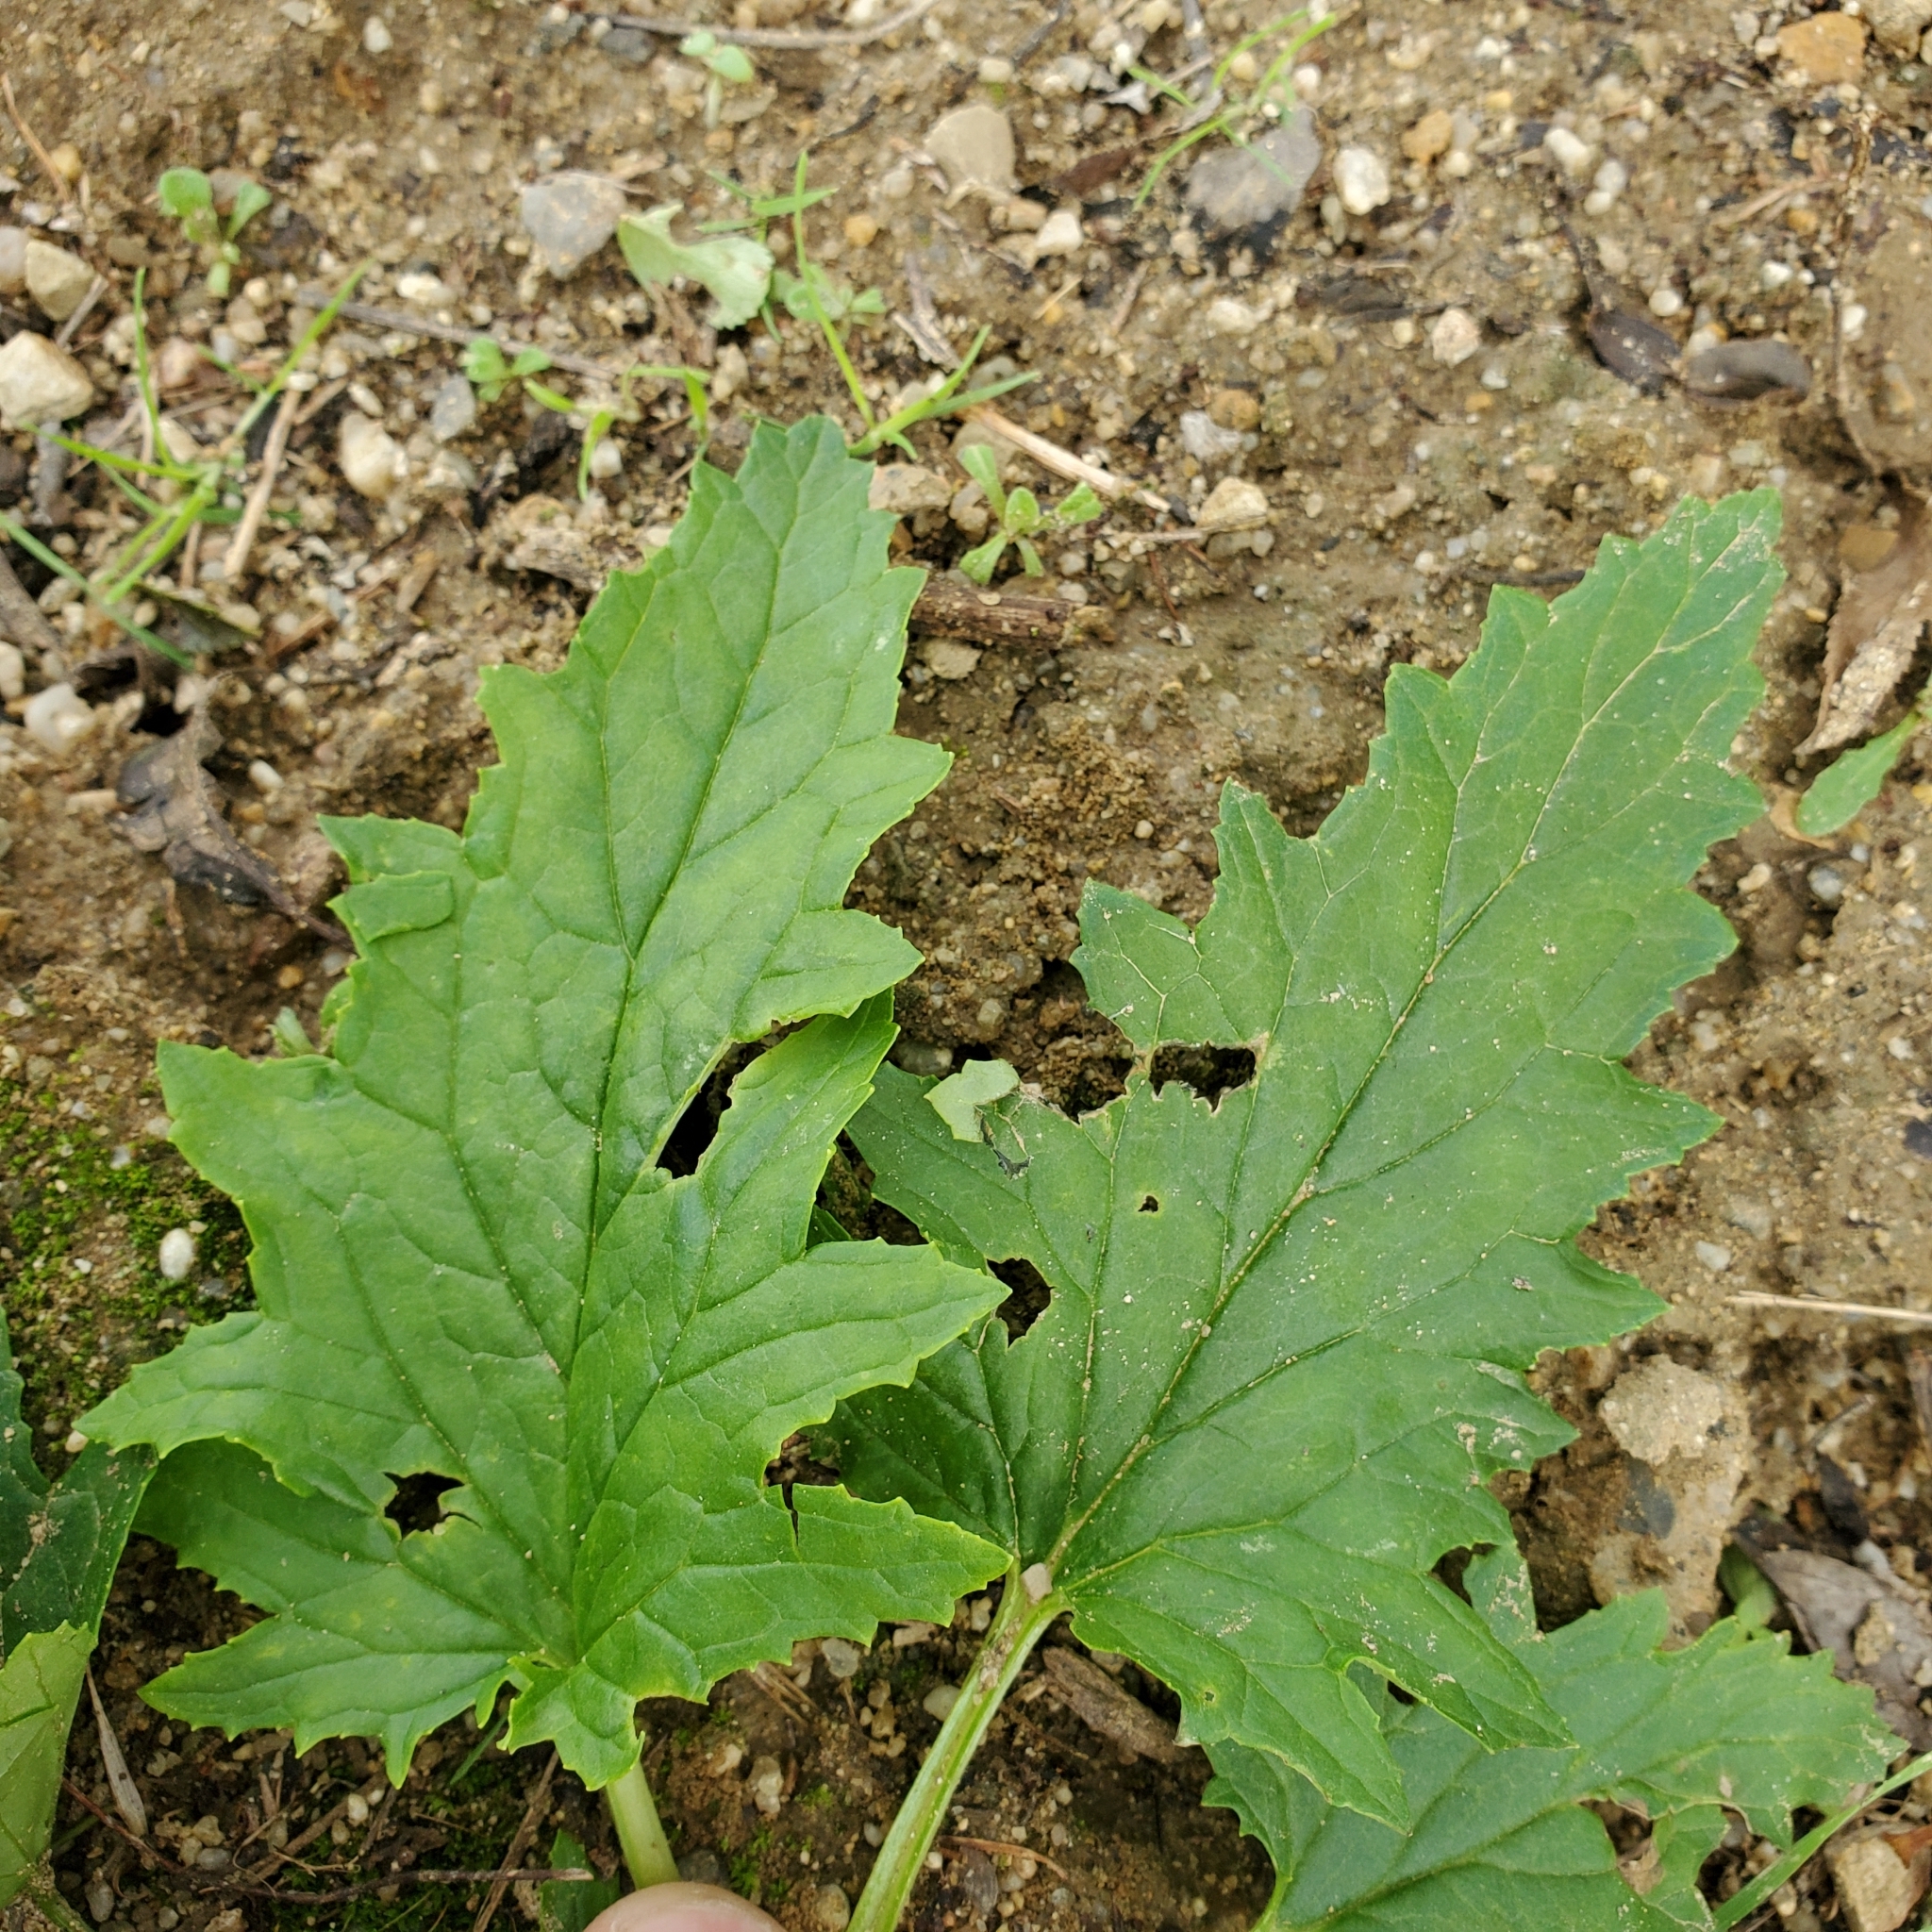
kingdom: Plantae
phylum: Tracheophyta
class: Magnoliopsida
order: Lamiales
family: Scrophulariaceae
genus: Scrophularia
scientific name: Scrophularia californica
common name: California figwort
